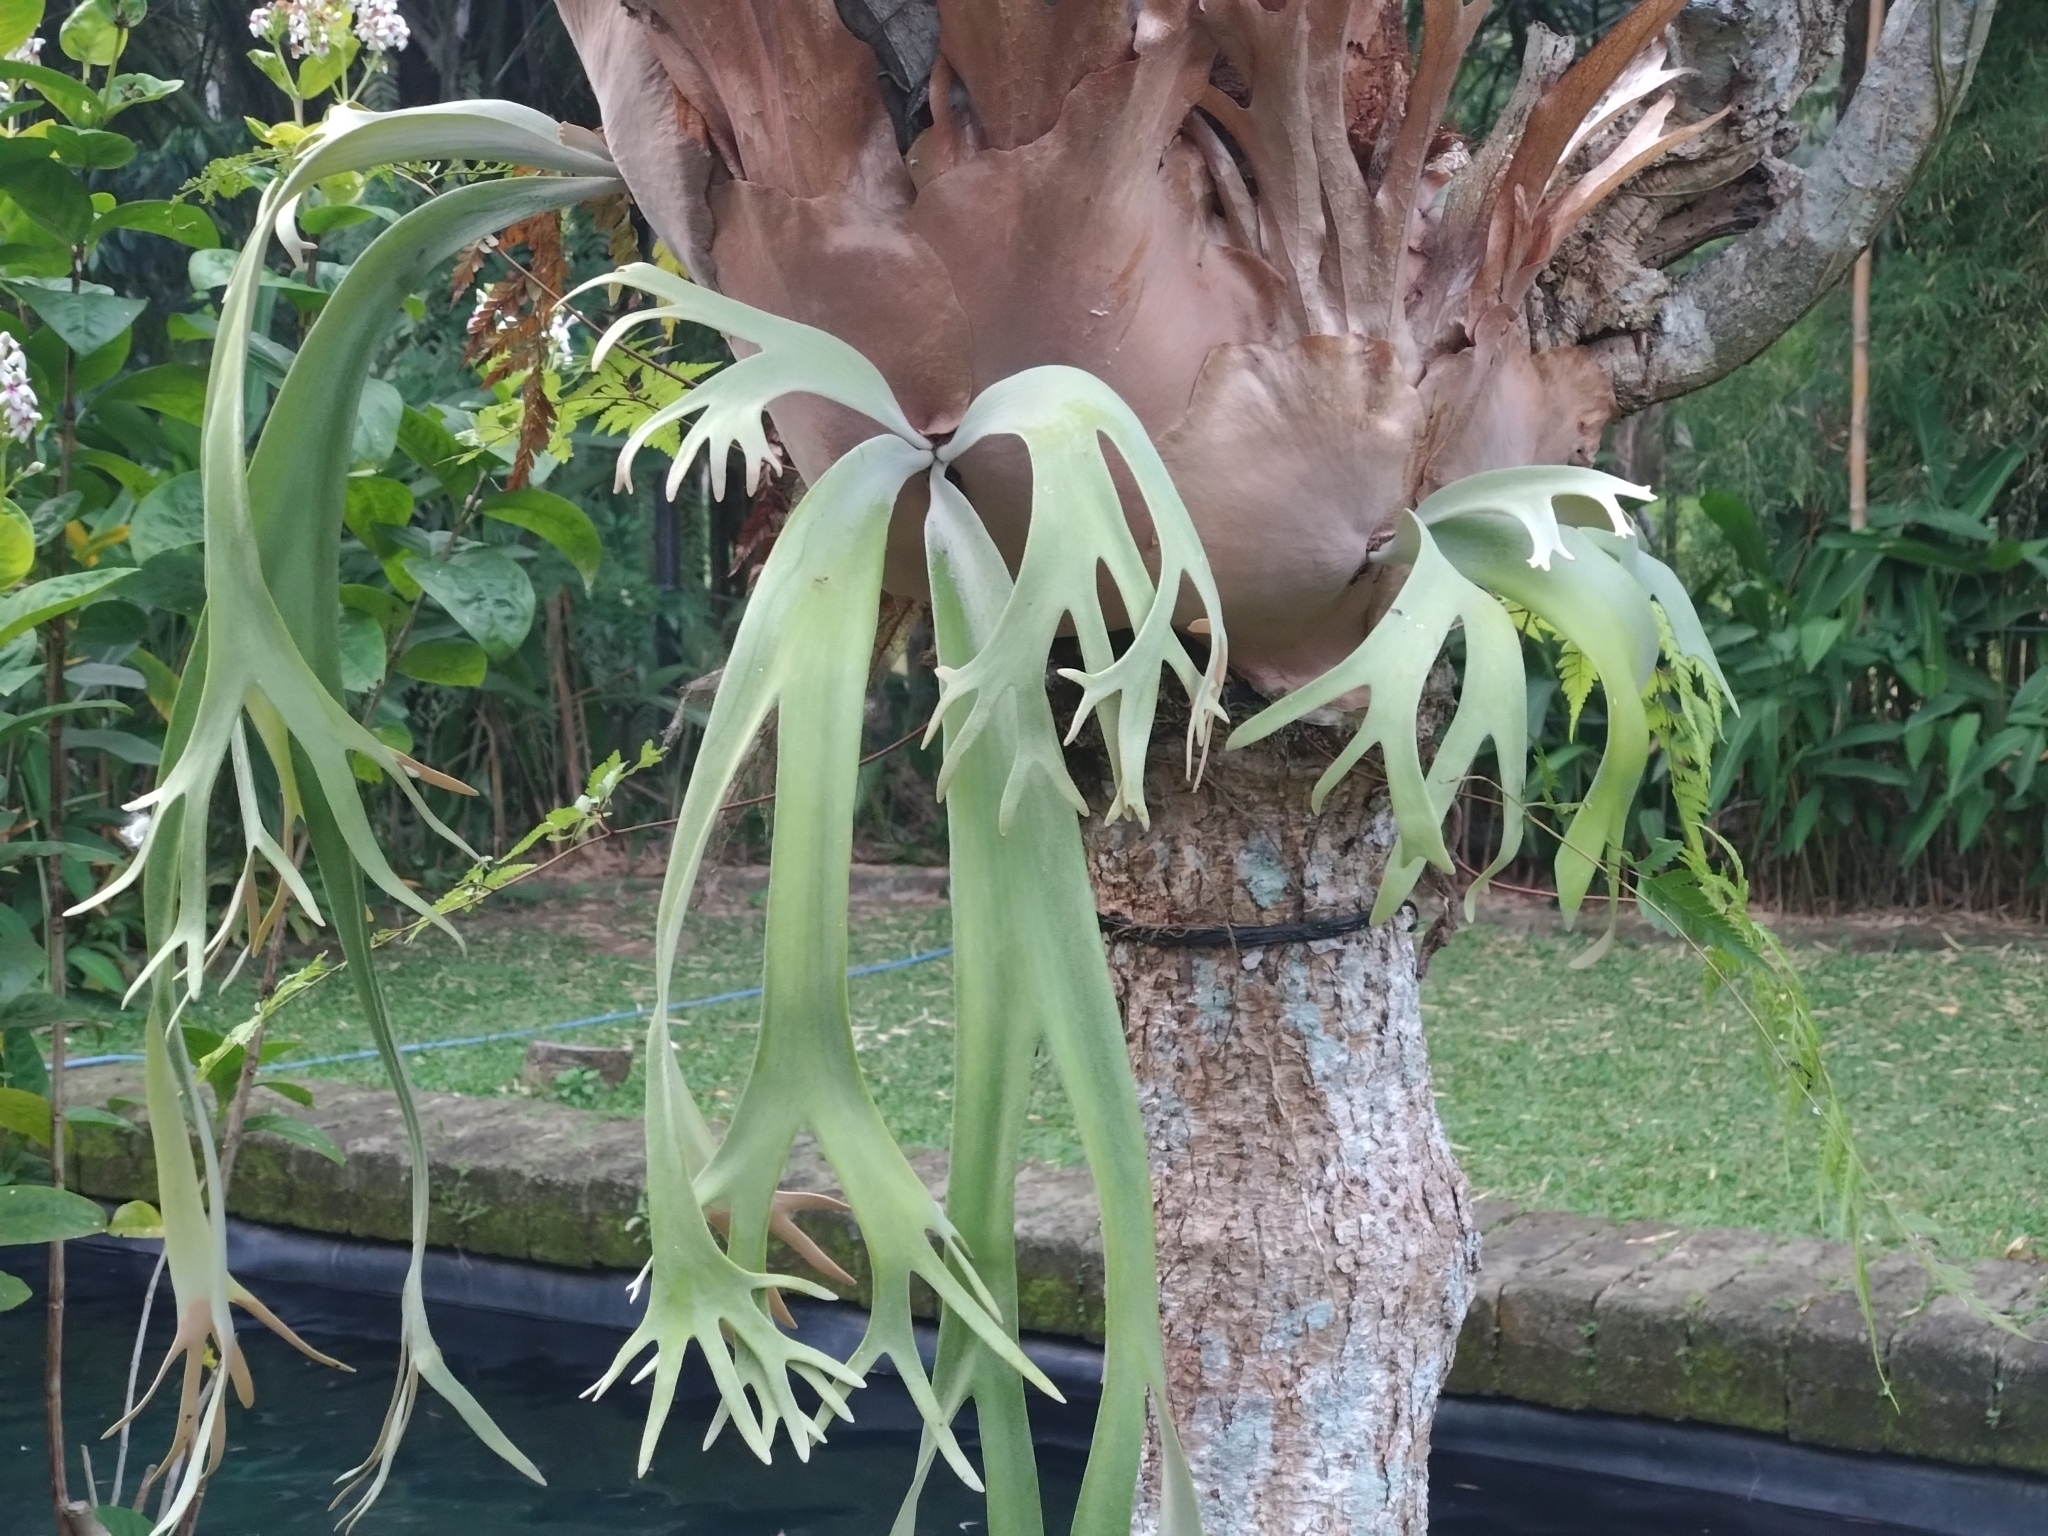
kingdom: Plantae
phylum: Tracheophyta
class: Polypodiopsida
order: Polypodiales
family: Polypodiaceae
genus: Platycerium
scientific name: Platycerium bifurcatum
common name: Elkhorn fern
